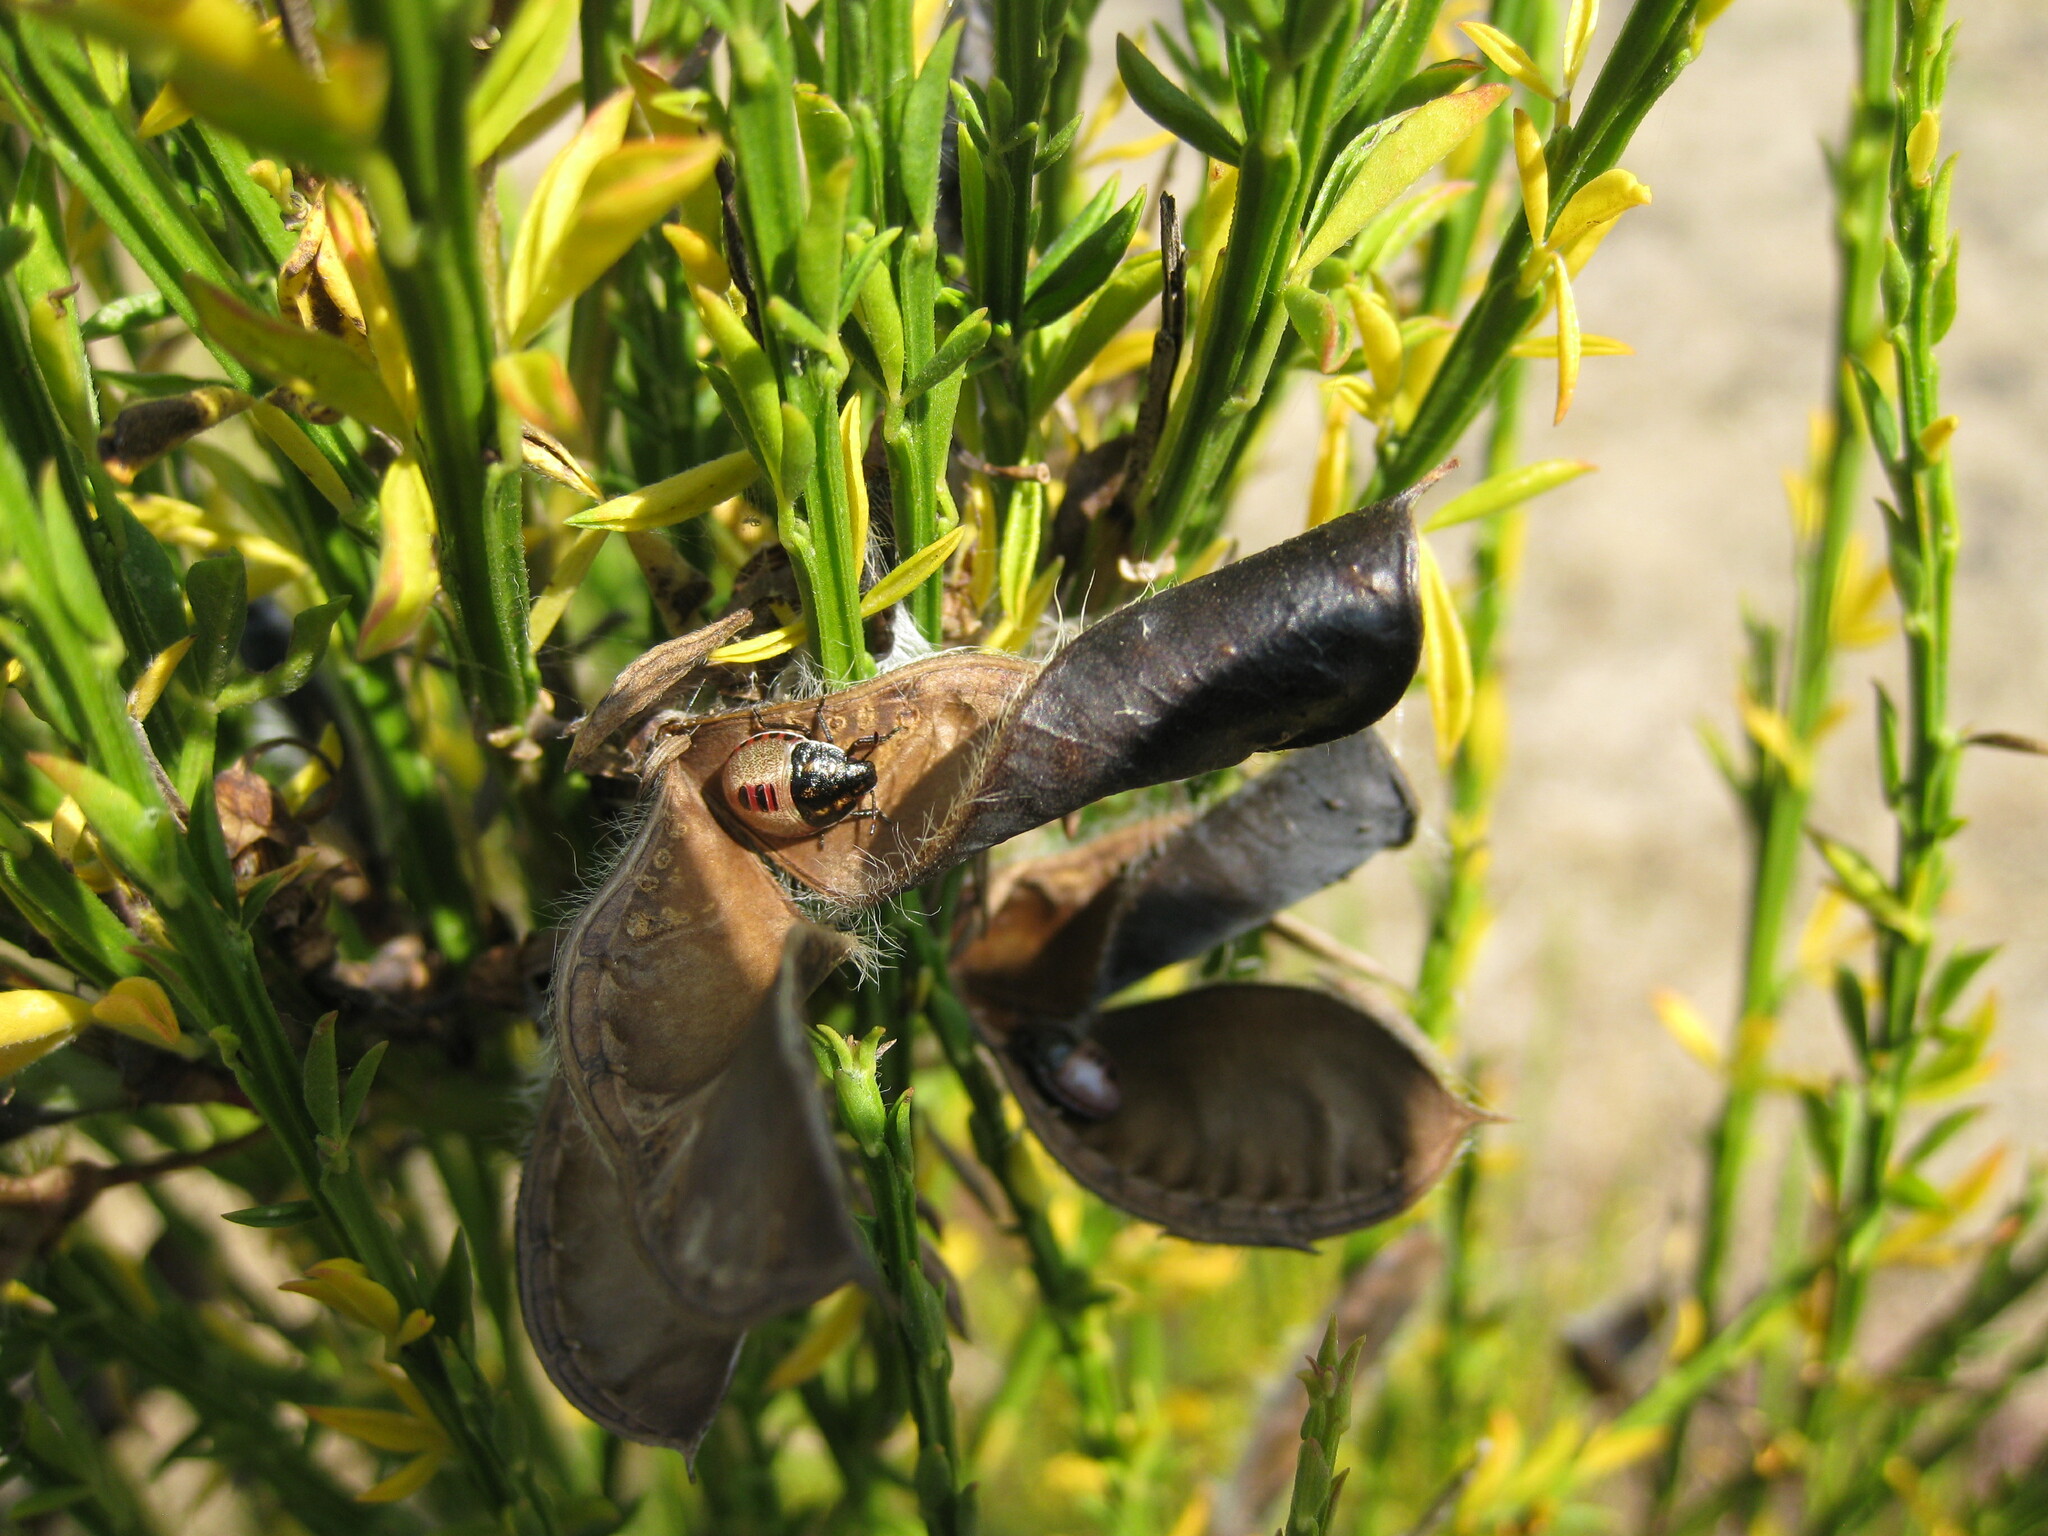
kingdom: Animalia
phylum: Arthropoda
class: Insecta
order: Hemiptera
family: Pentatomidae
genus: Piezodorus
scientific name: Piezodorus lituratus
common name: Stink bug
